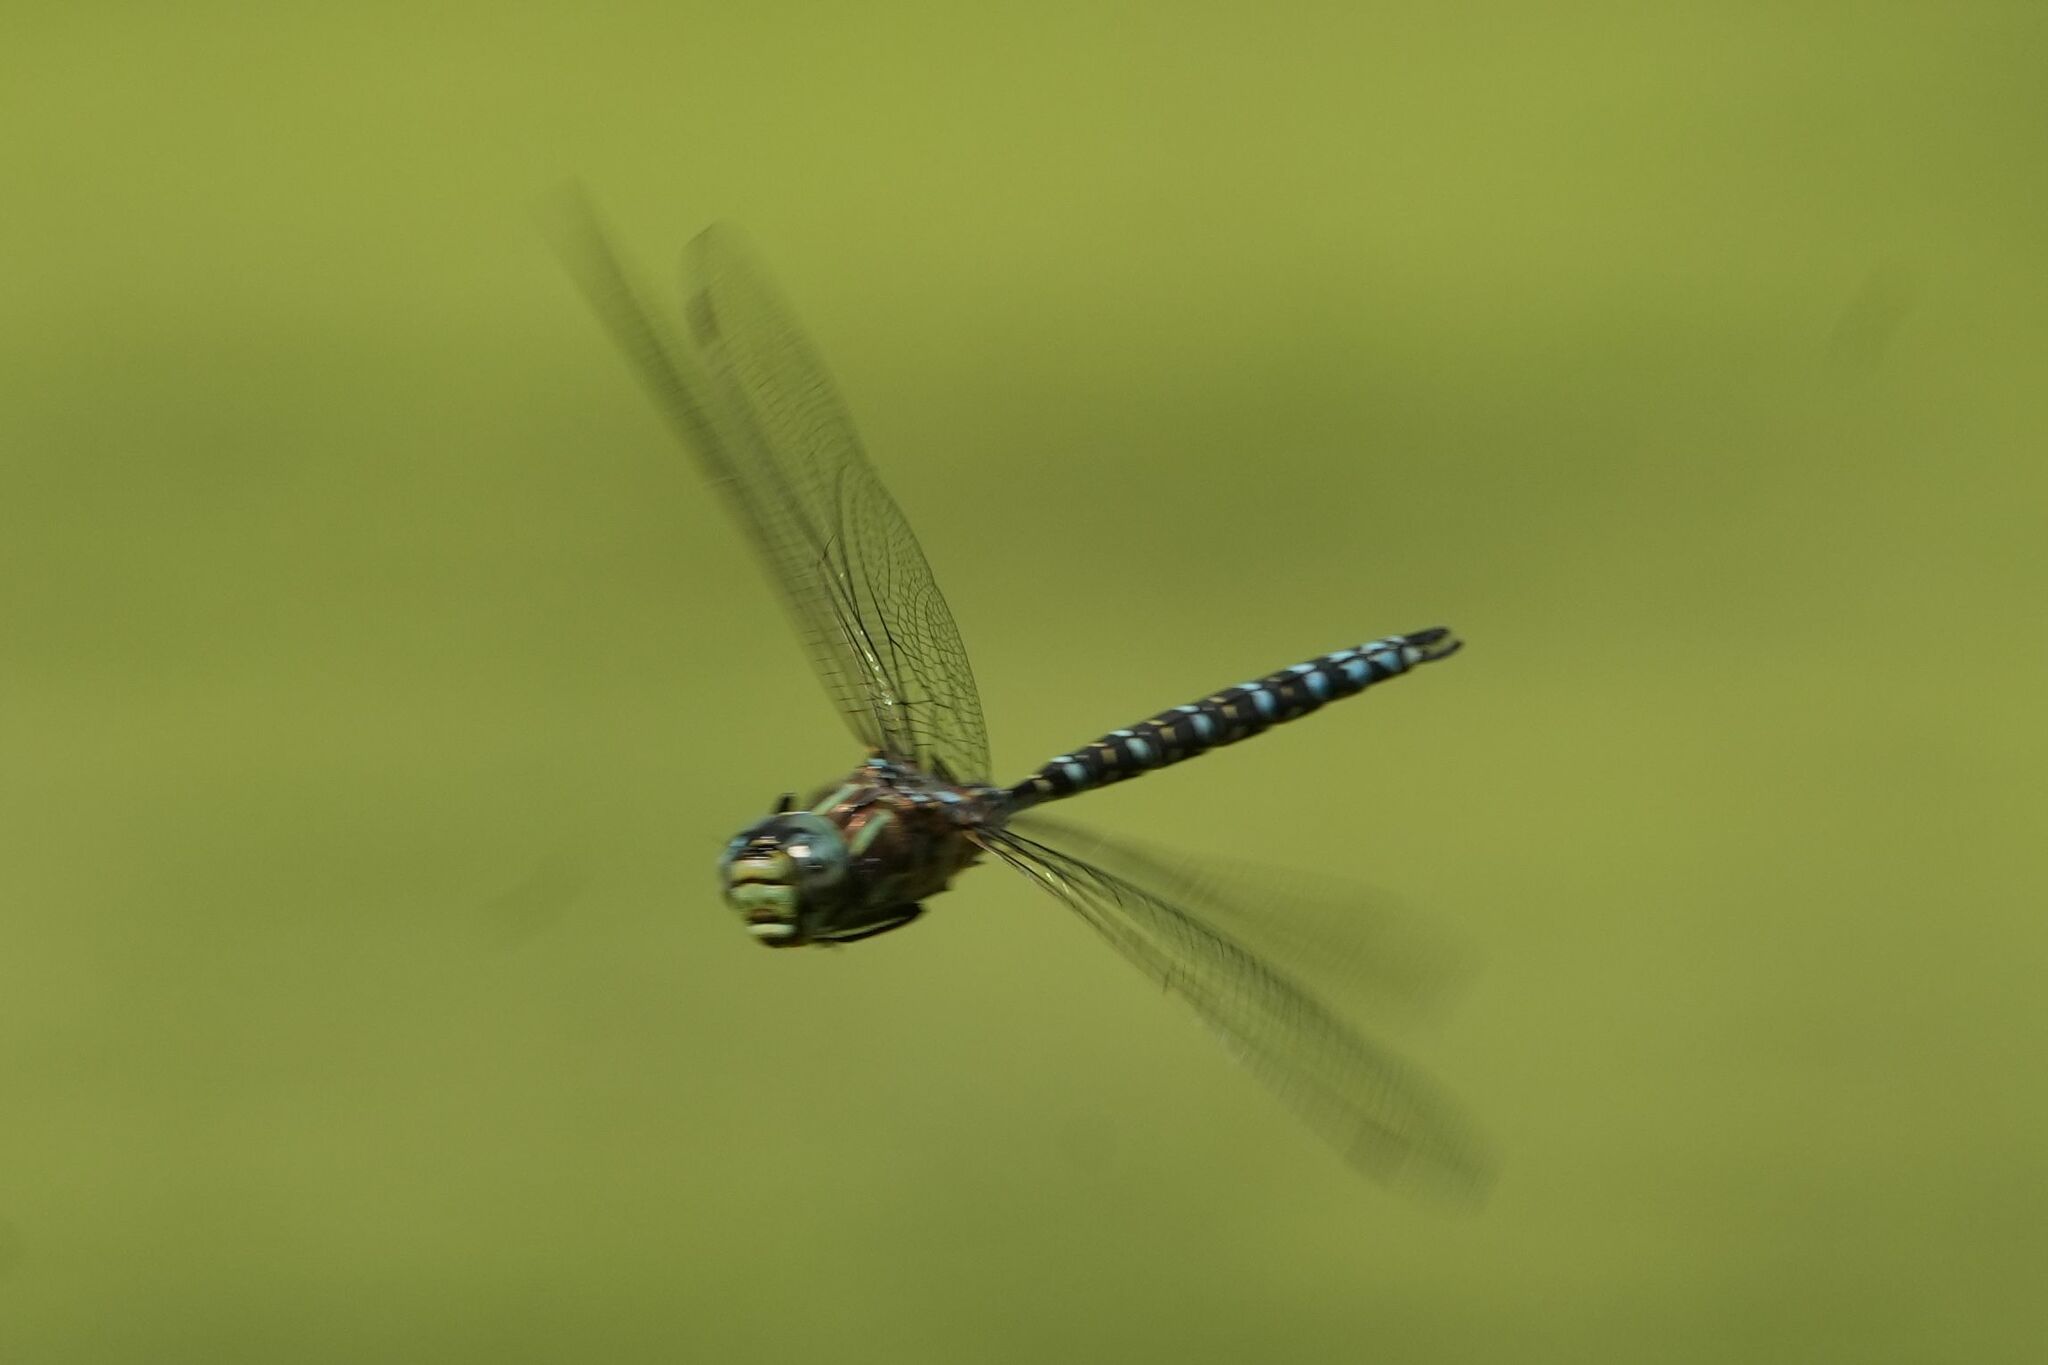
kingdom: Animalia
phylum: Arthropoda
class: Insecta
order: Odonata
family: Aeshnidae
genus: Aeshna
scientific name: Aeshna eremita
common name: Lake darner
